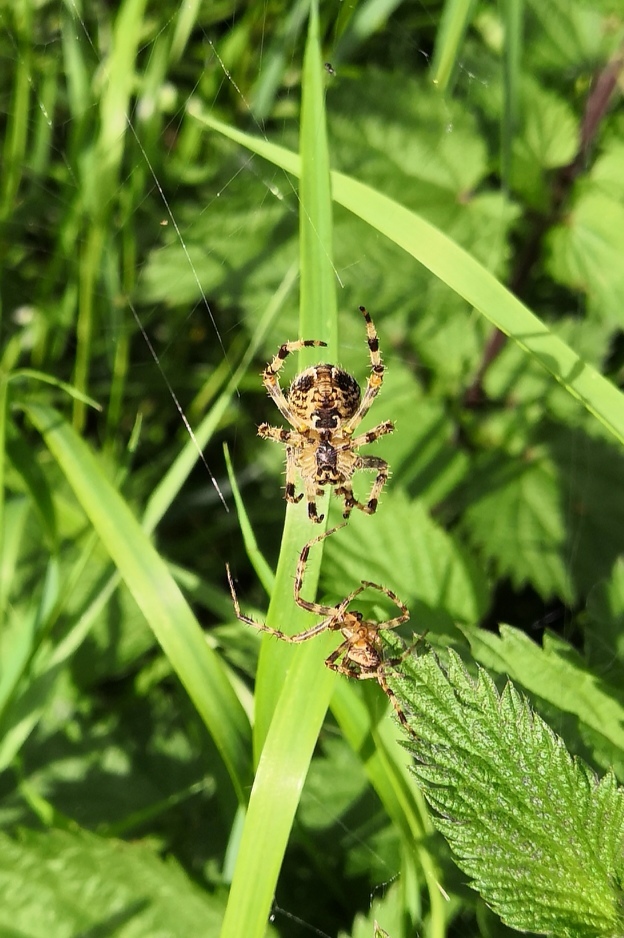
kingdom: Animalia
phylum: Arthropoda
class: Arachnida
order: Araneae
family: Araneidae
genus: Araneus
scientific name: Araneus diadematus
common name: Cross orbweaver
